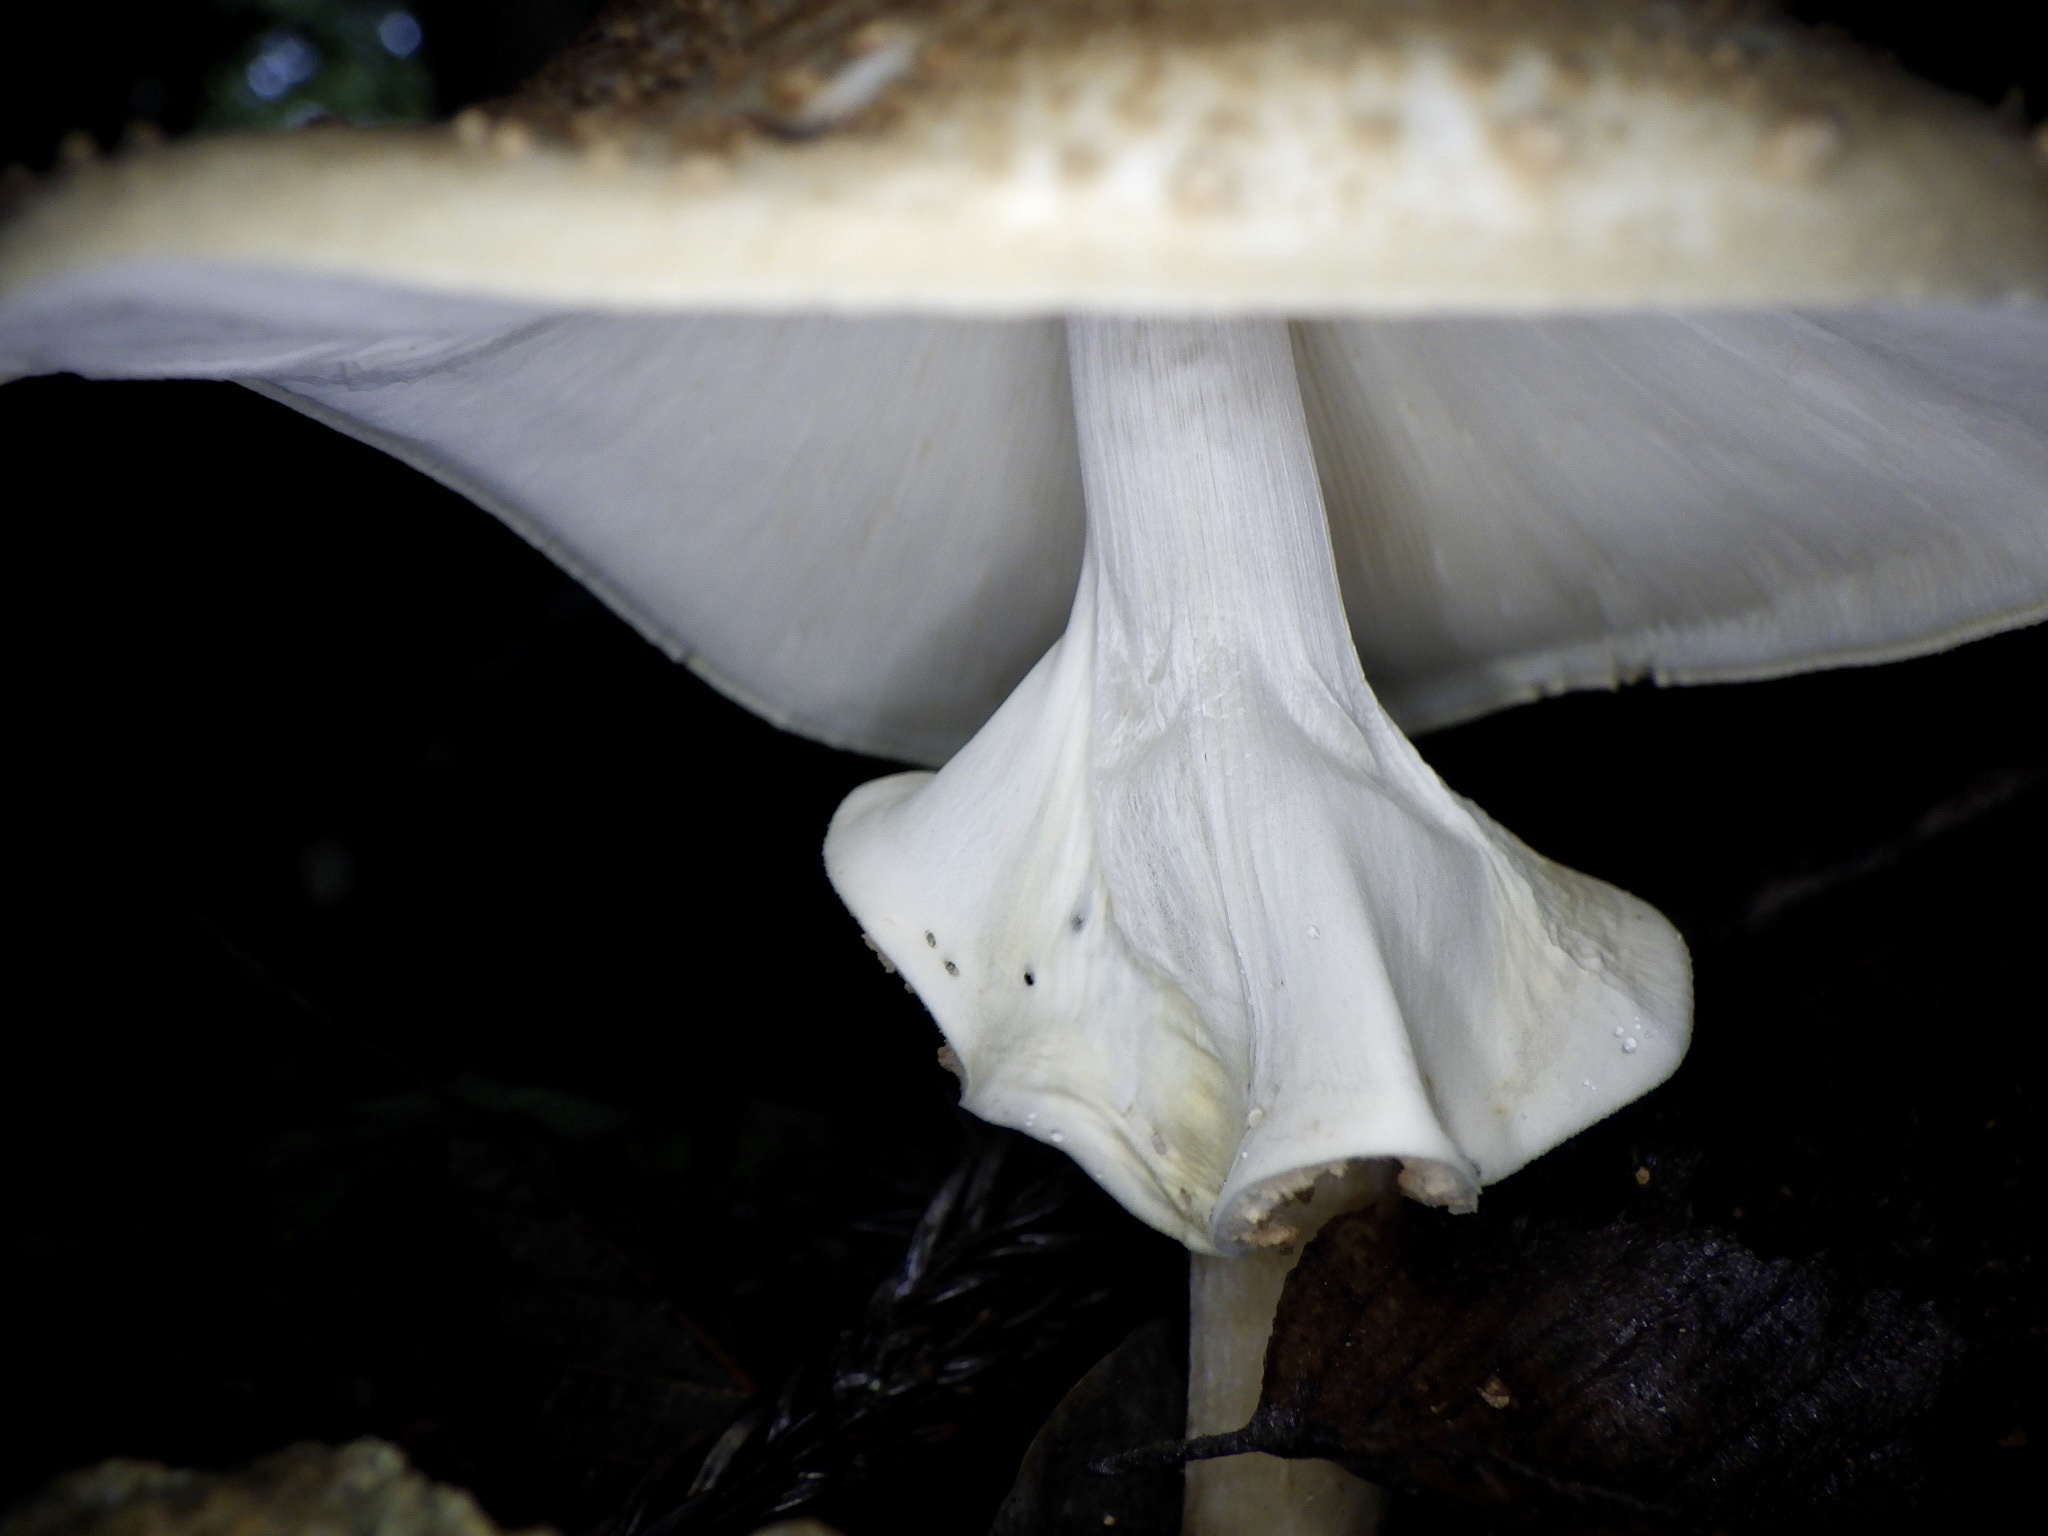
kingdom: Fungi
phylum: Basidiomycota
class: Agaricomycetes
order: Agaricales
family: Agaricaceae
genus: Echinoderma
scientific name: Echinoderma asperum
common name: Freckled dapperling
